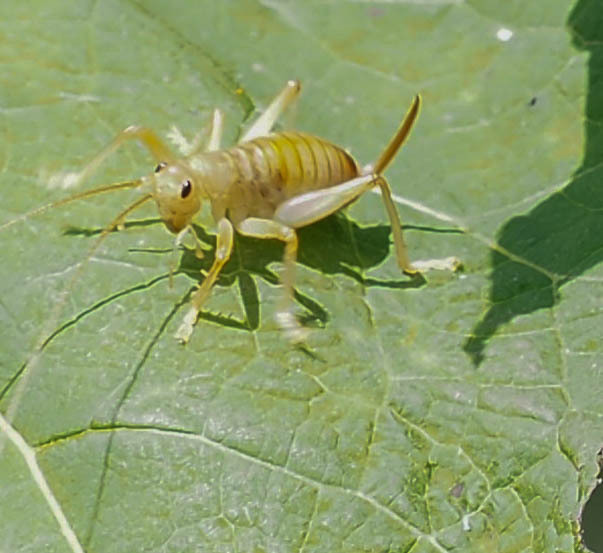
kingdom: Animalia
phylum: Arthropoda
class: Insecta
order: Orthoptera
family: Gryllacrididae
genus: Camptonotus
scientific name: Camptonotus carolinensis
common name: Carolina leaf-roller
